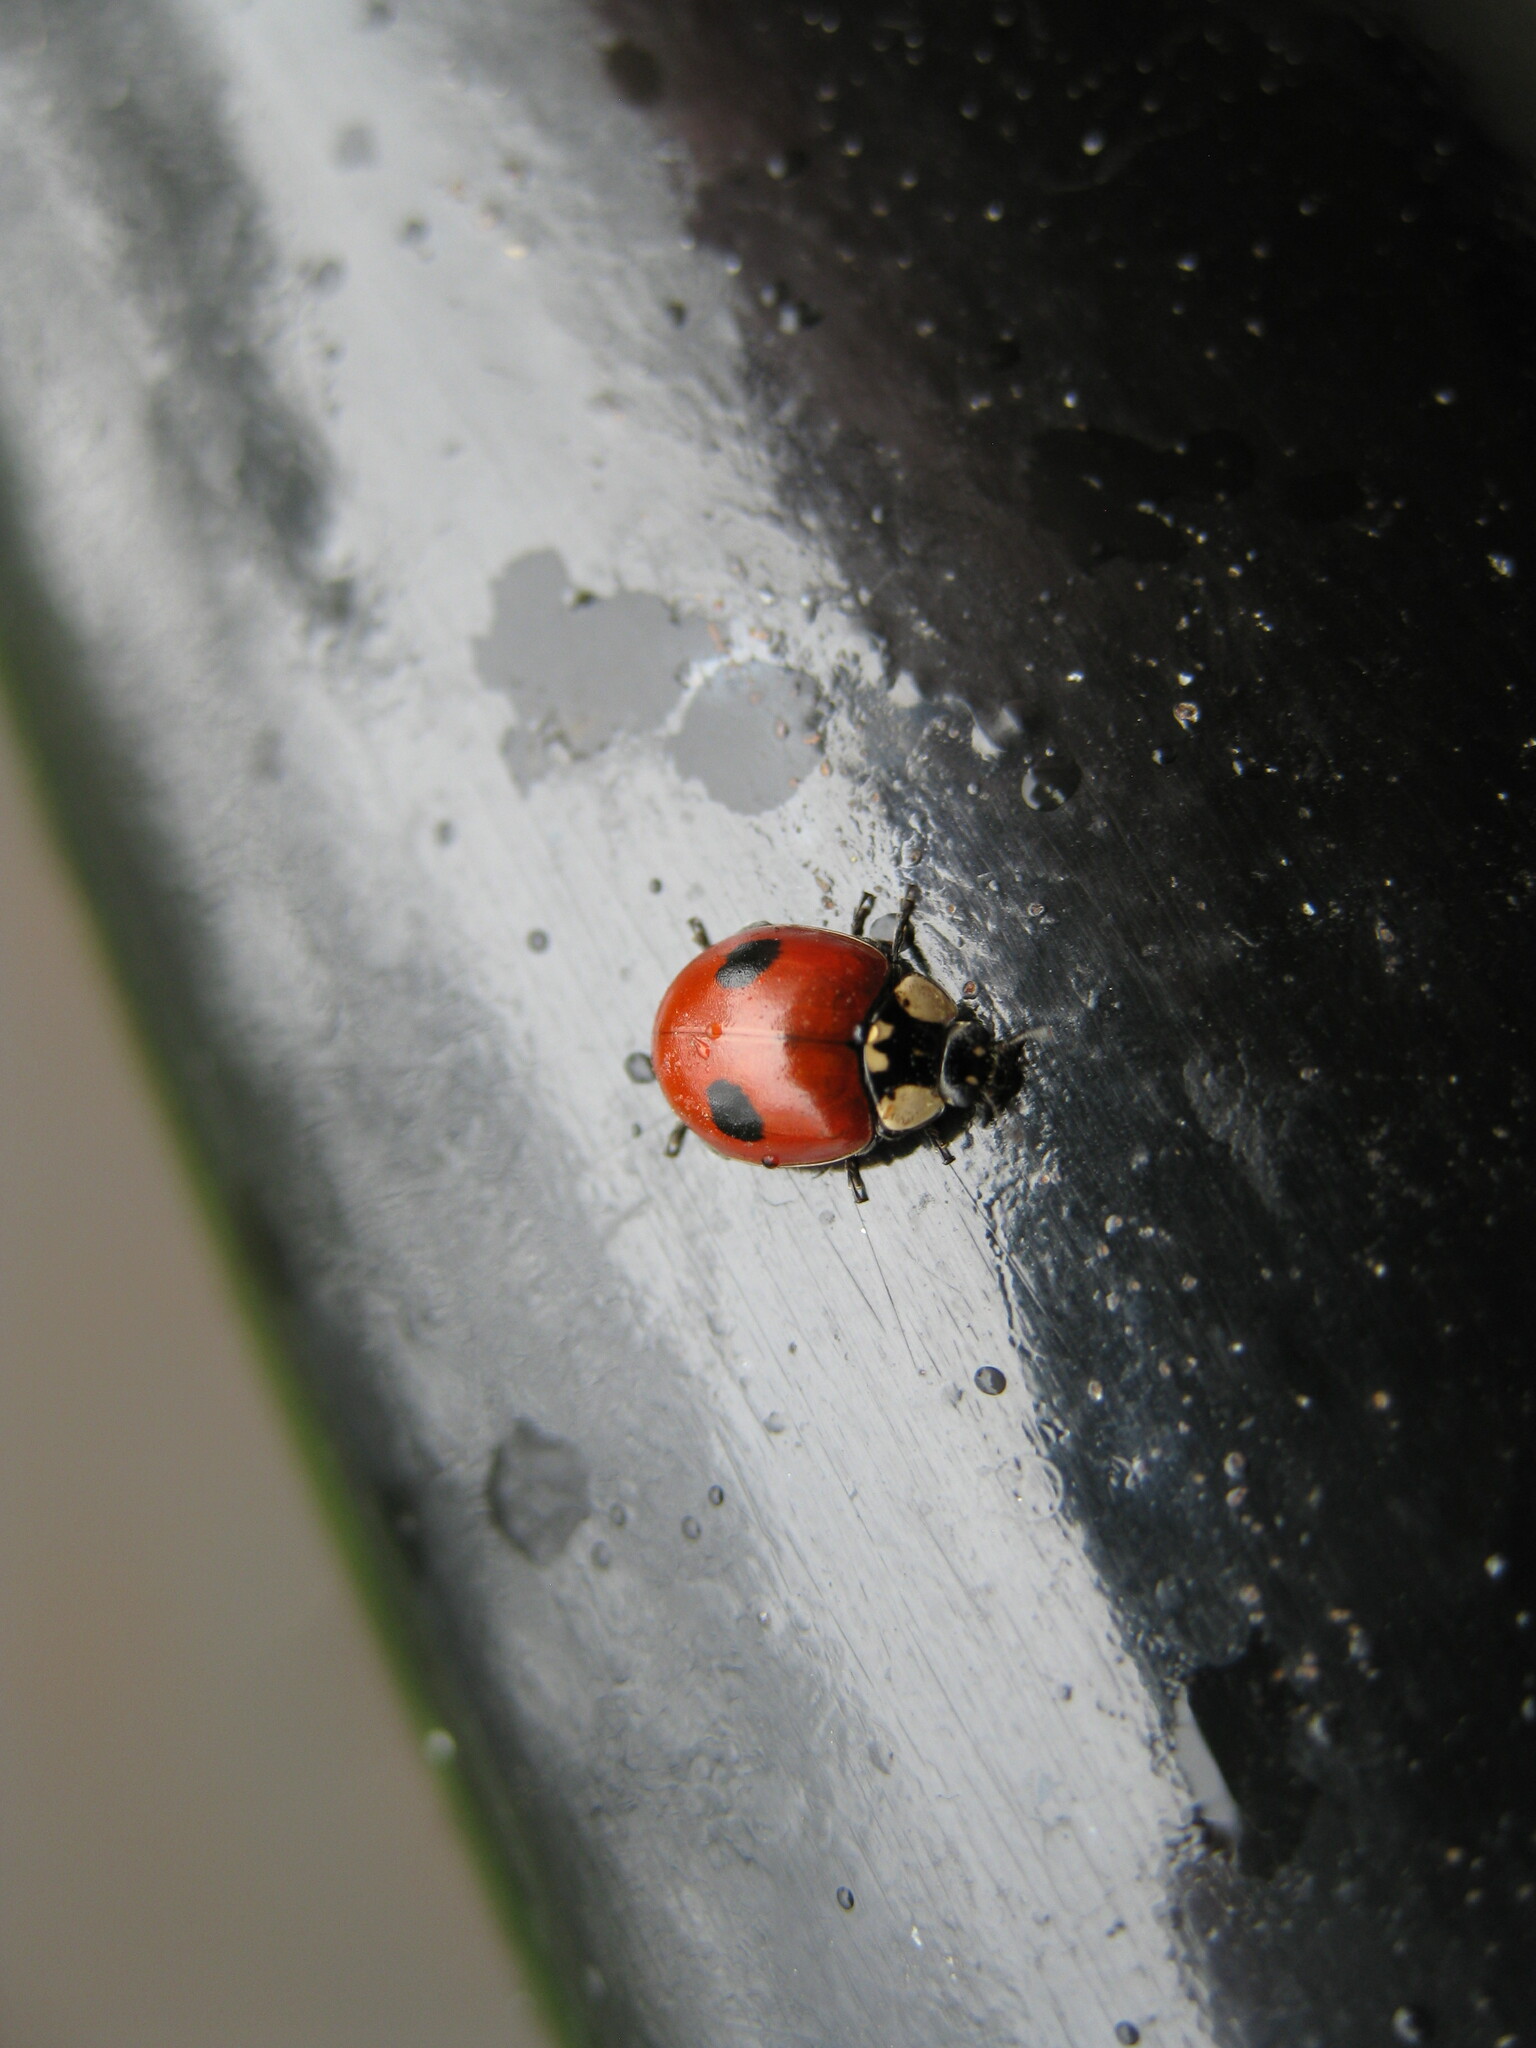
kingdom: Animalia
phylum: Arthropoda
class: Insecta
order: Coleoptera
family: Coccinellidae
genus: Adalia
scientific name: Adalia bipunctata
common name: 2-spot ladybird
